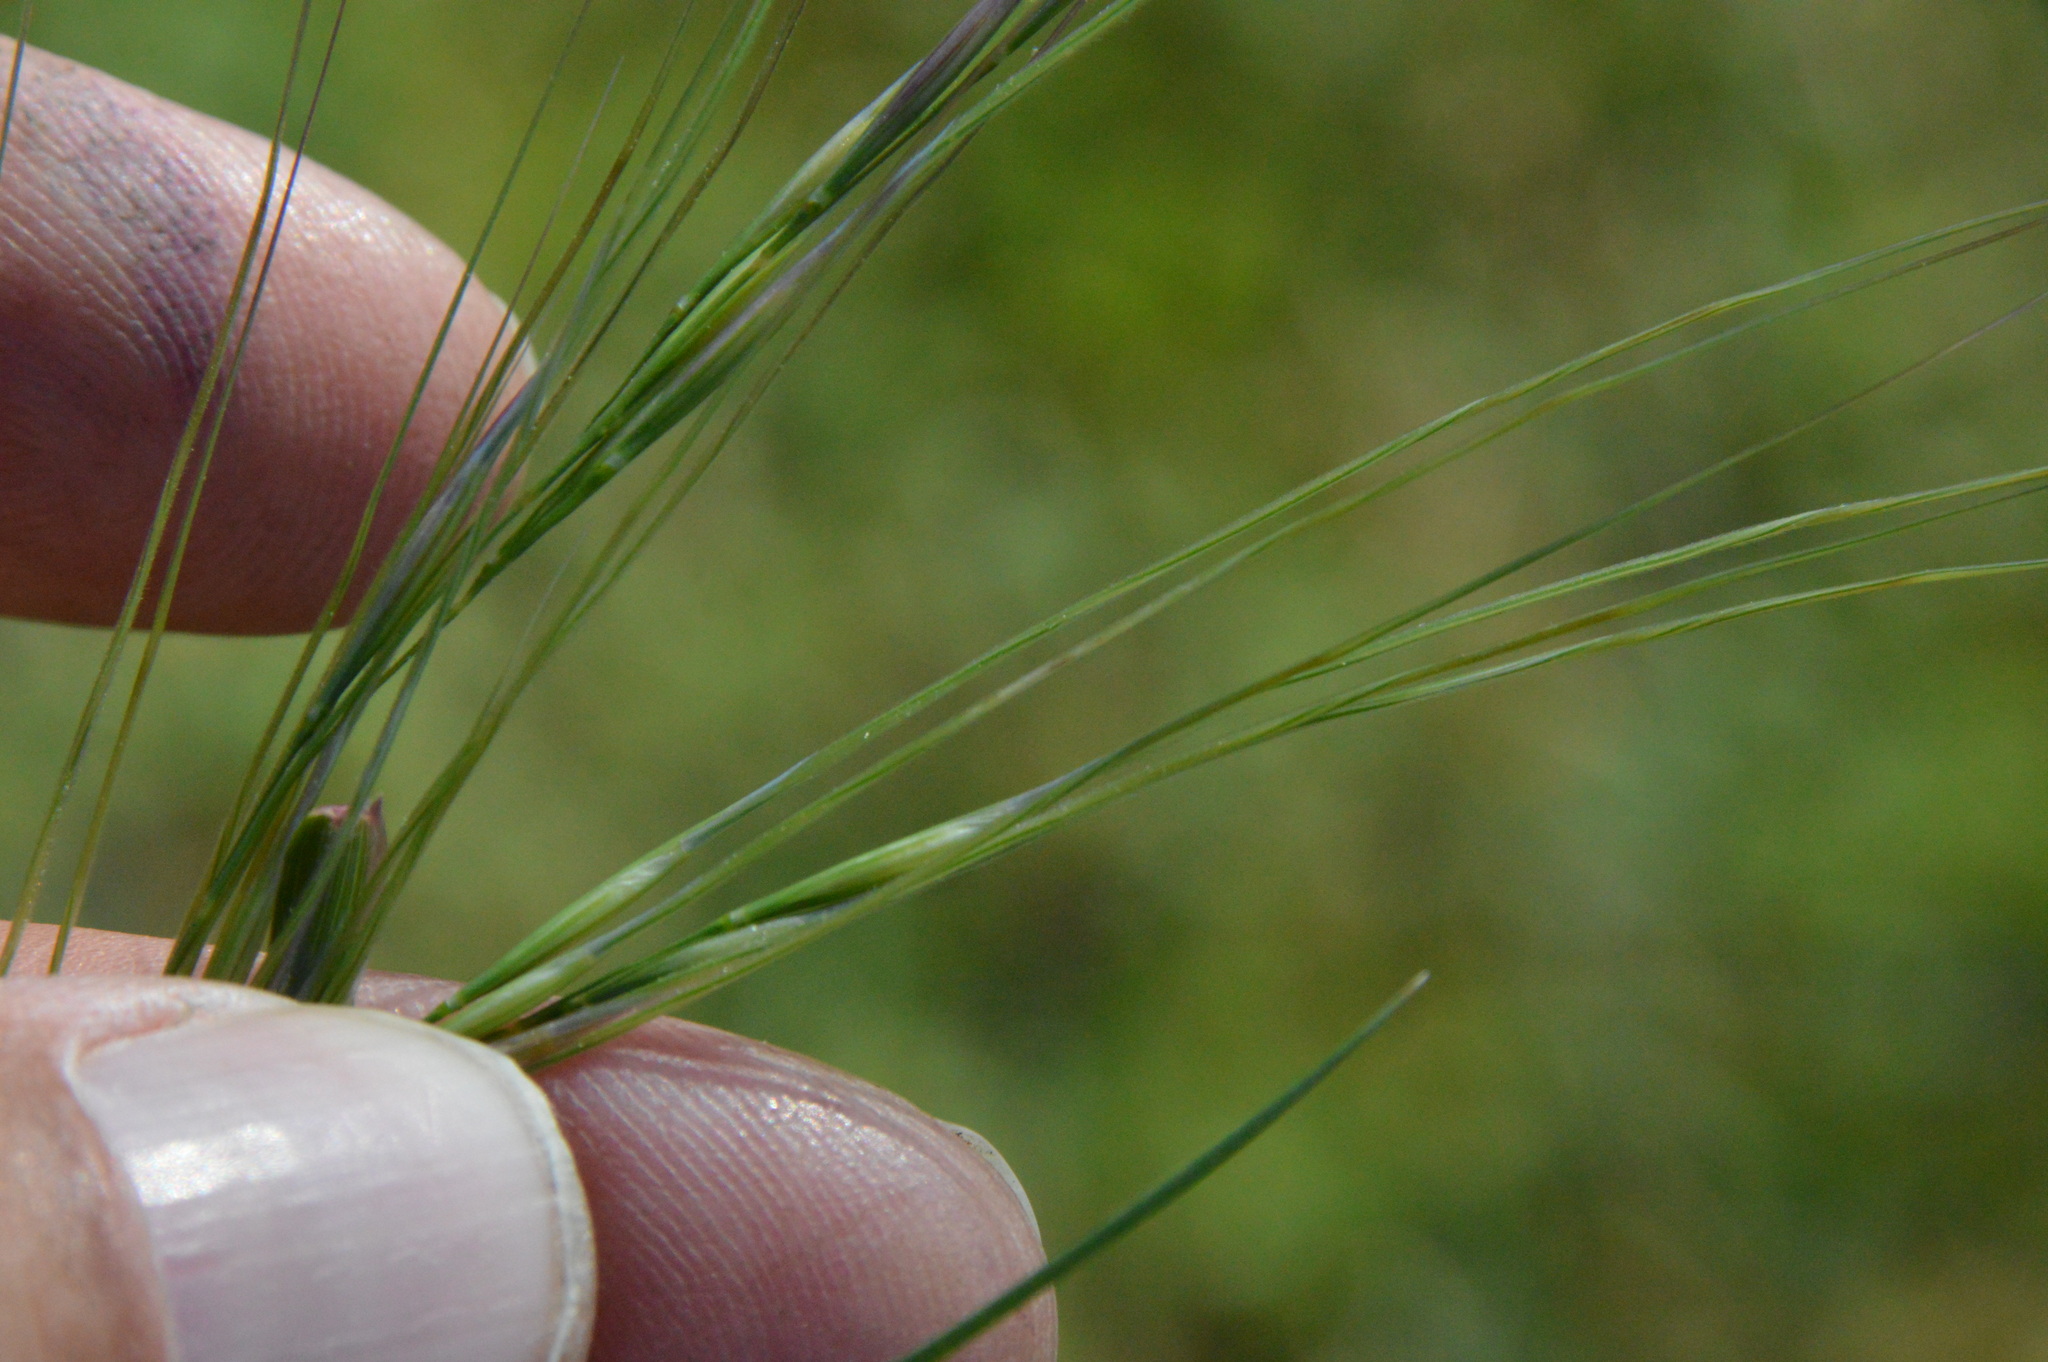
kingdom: Plantae
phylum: Tracheophyta
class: Liliopsida
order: Poales
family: Poaceae
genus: Nassella
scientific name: Nassella leucotricha
